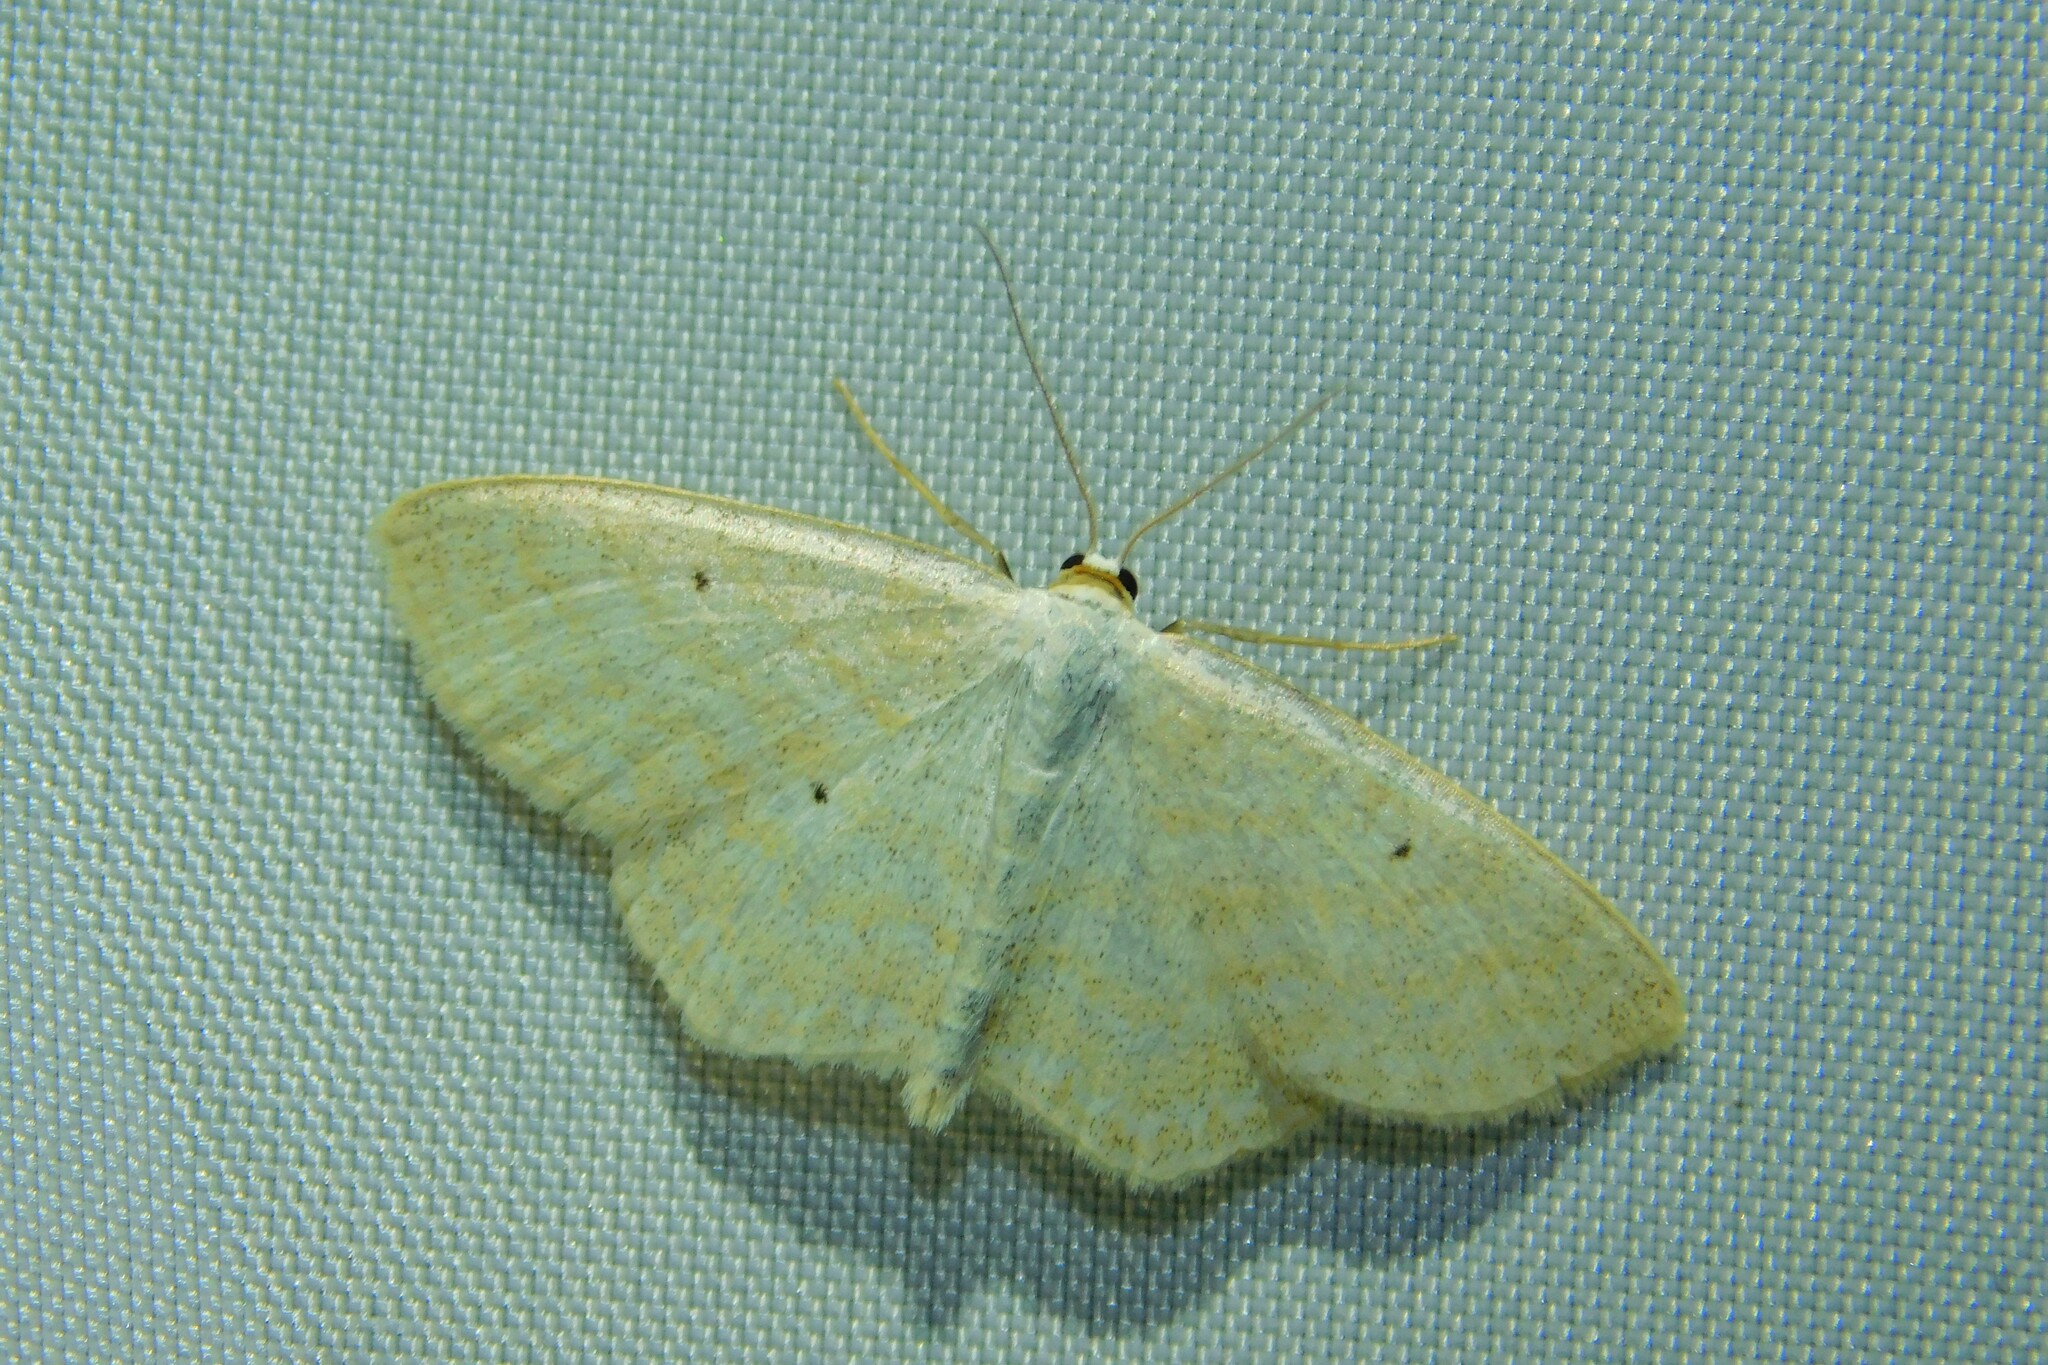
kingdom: Animalia
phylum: Arthropoda
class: Insecta
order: Lepidoptera
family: Geometridae
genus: Scopula
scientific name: Scopula immutata
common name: Lesser cream wave
